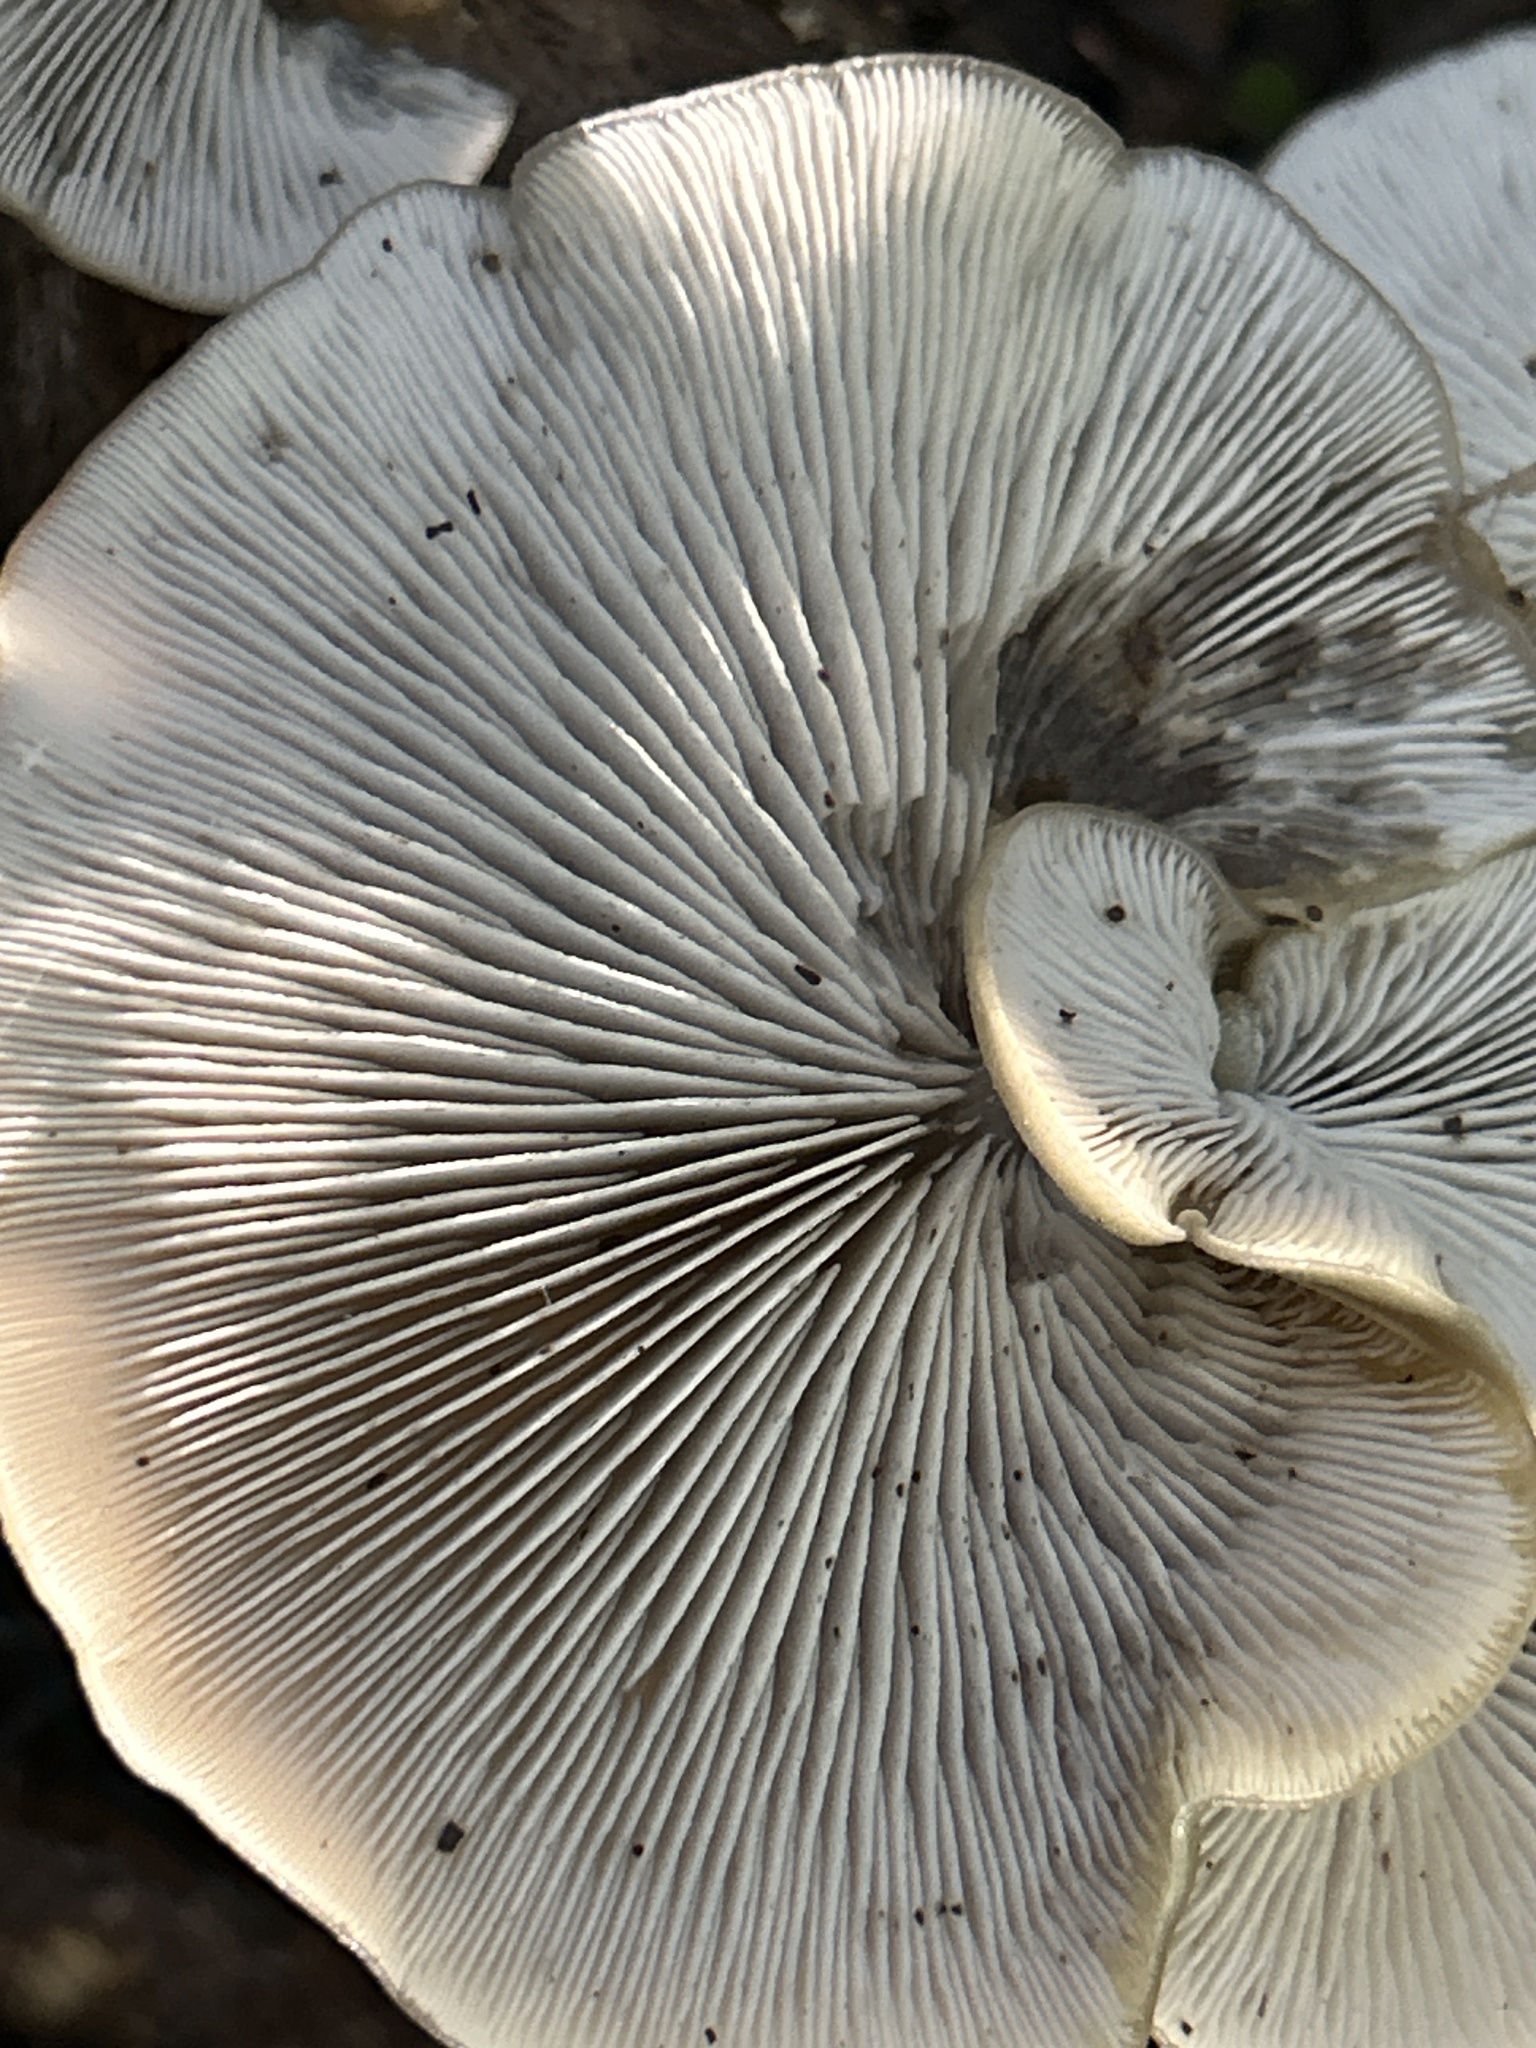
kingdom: Fungi
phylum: Basidiomycota
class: Agaricomycetes
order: Agaricales
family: Tricholomataceae
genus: Conchomyces
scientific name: Conchomyces bursiformis
